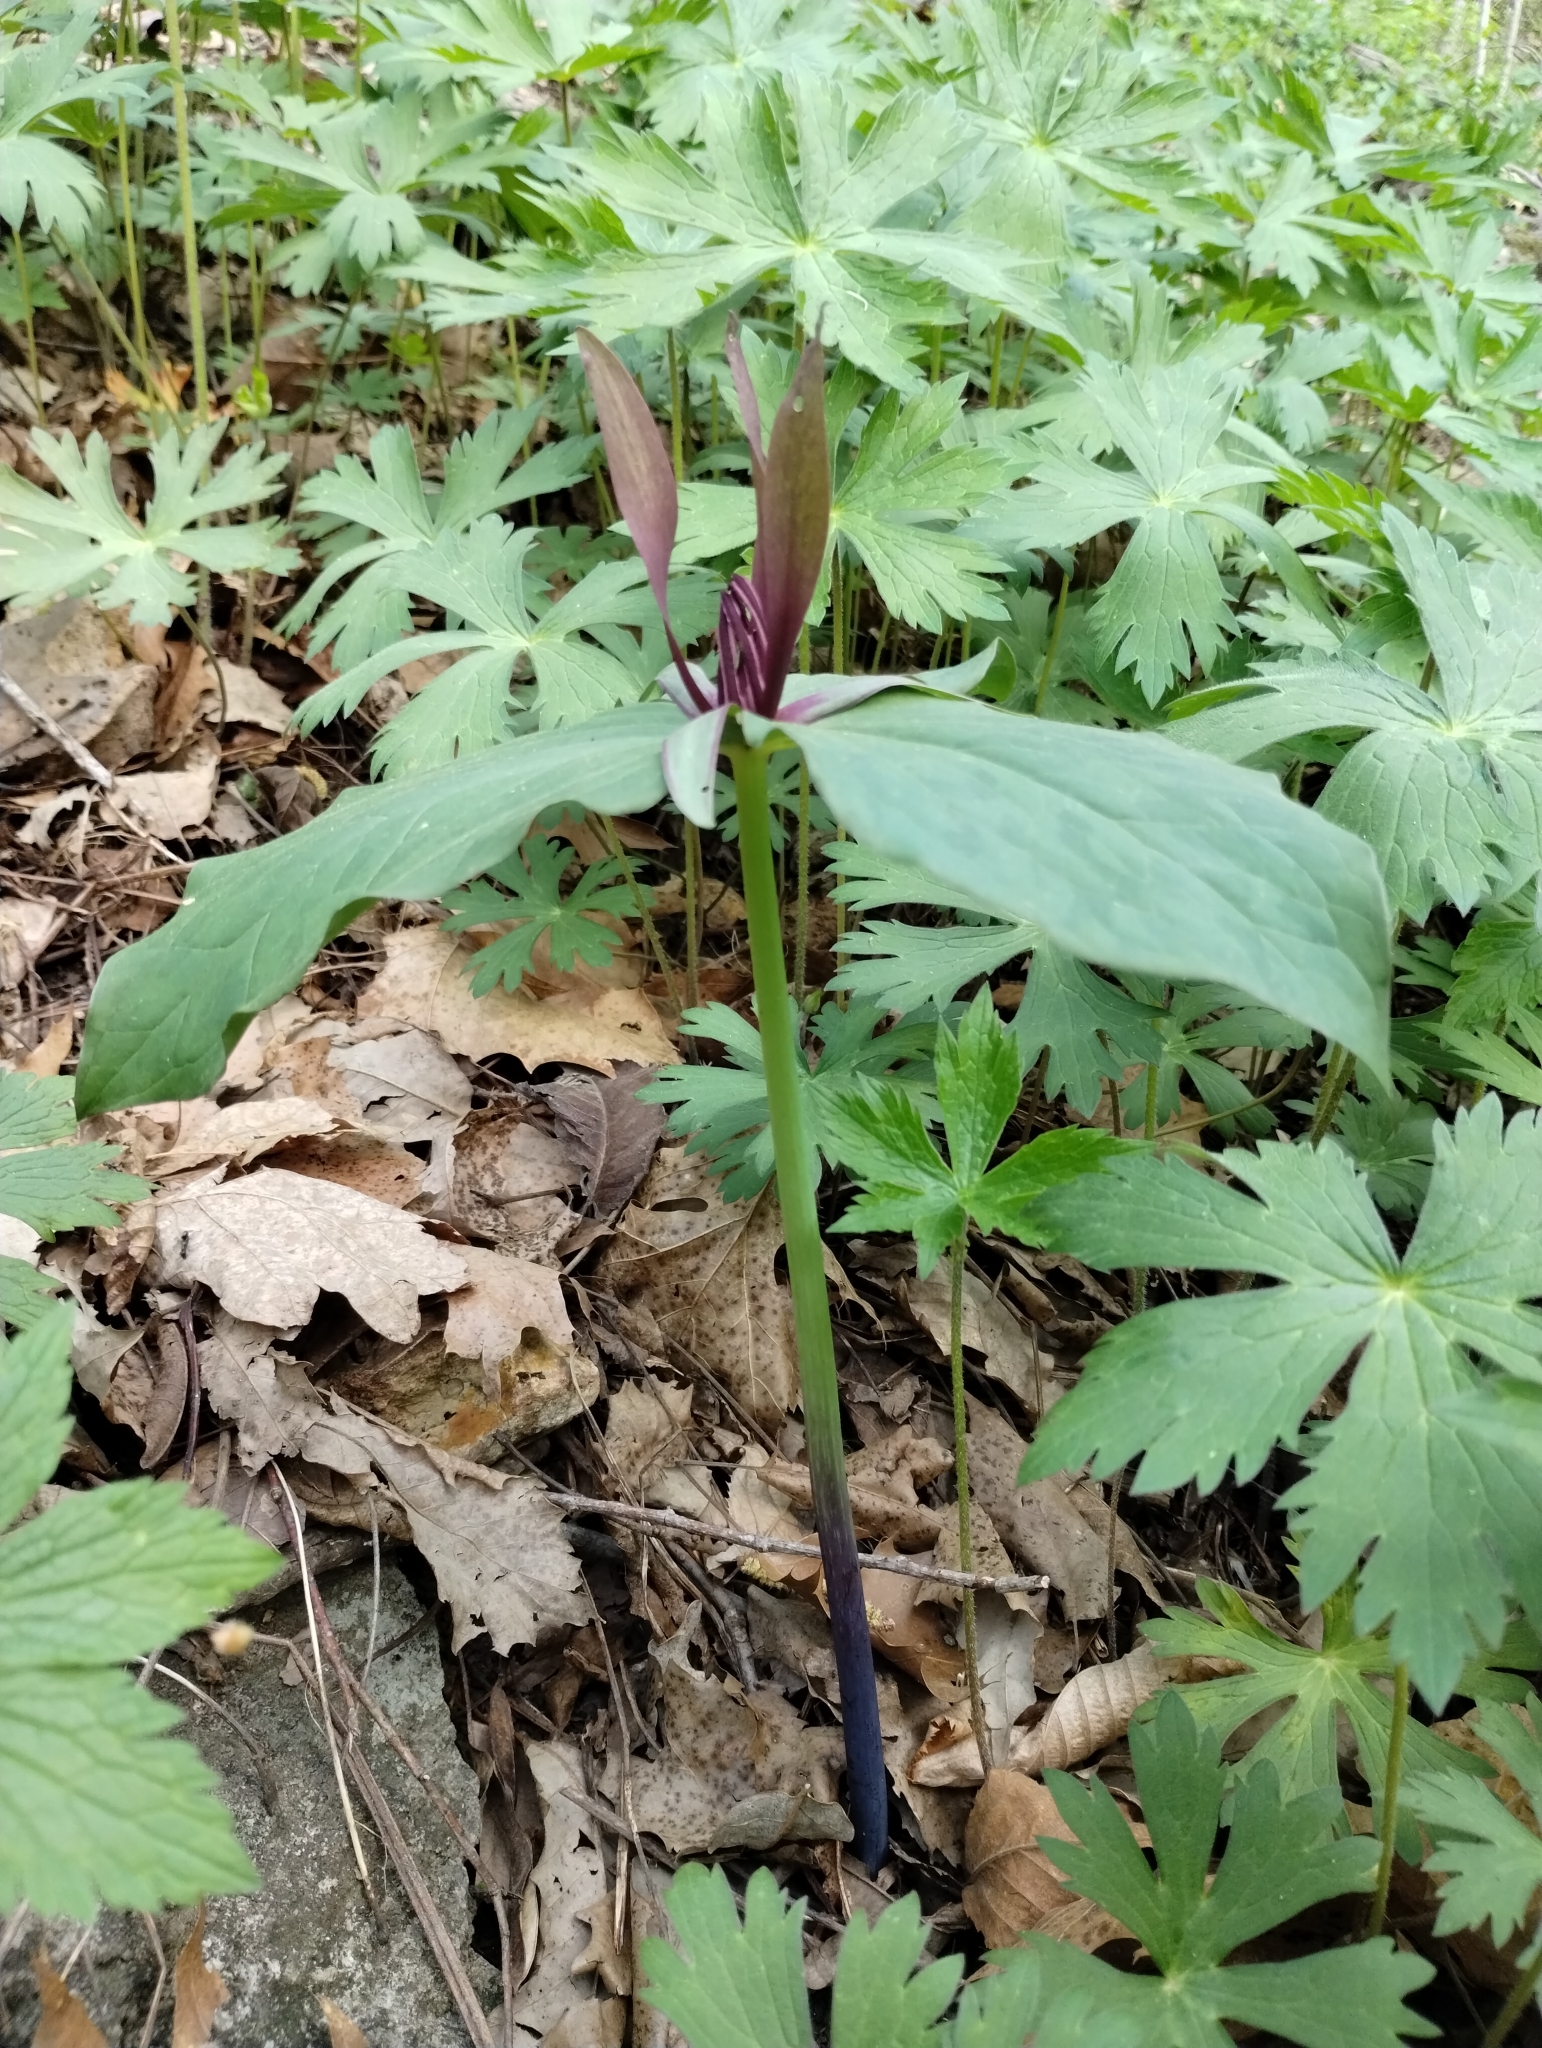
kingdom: Plantae
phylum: Tracheophyta
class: Liliopsida
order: Liliales
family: Melanthiaceae
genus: Trillium
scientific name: Trillium viridescens
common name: Ozark green trillium
